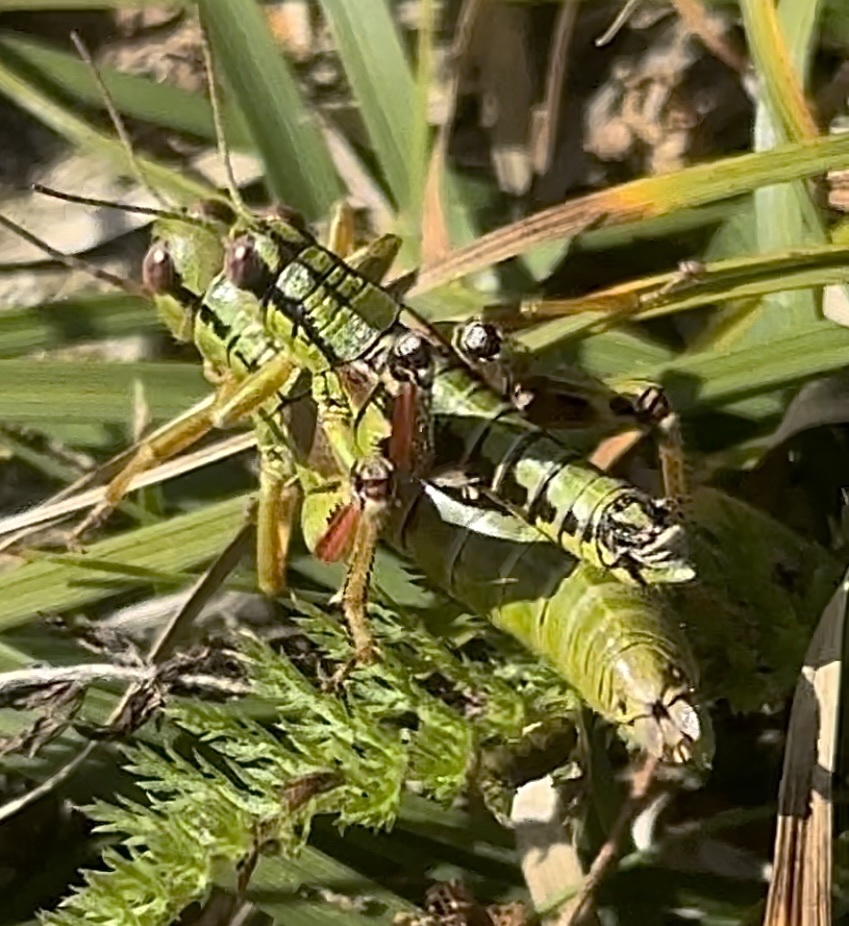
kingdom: Animalia
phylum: Arthropoda
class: Insecta
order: Orthoptera
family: Acrididae
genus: Miramella
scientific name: Miramella carinthiaca
